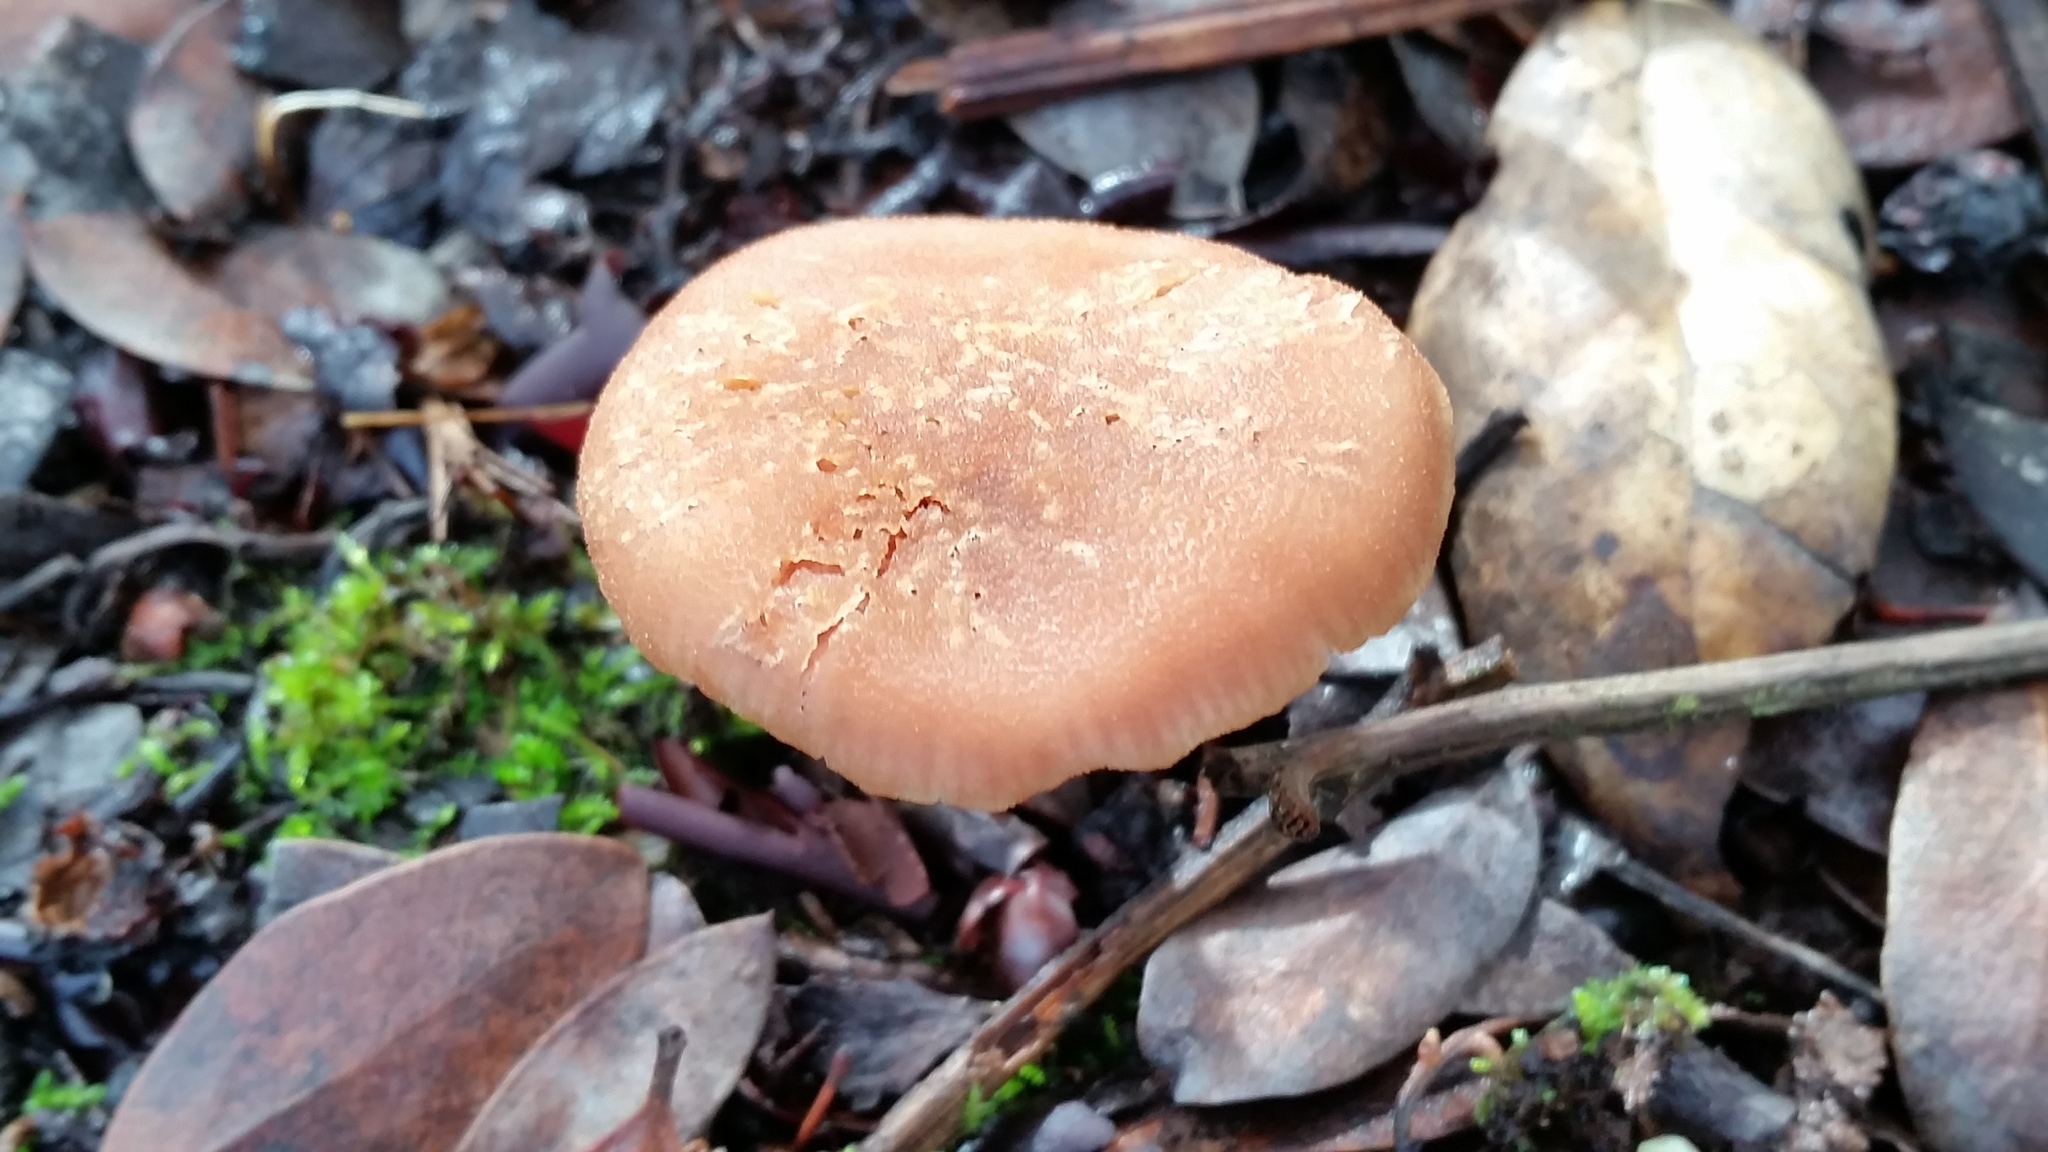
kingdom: Fungi
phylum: Basidiomycota
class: Agaricomycetes
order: Agaricales
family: Hydnangiaceae
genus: Laccaria
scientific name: Laccaria amethysteo-occidentalis
